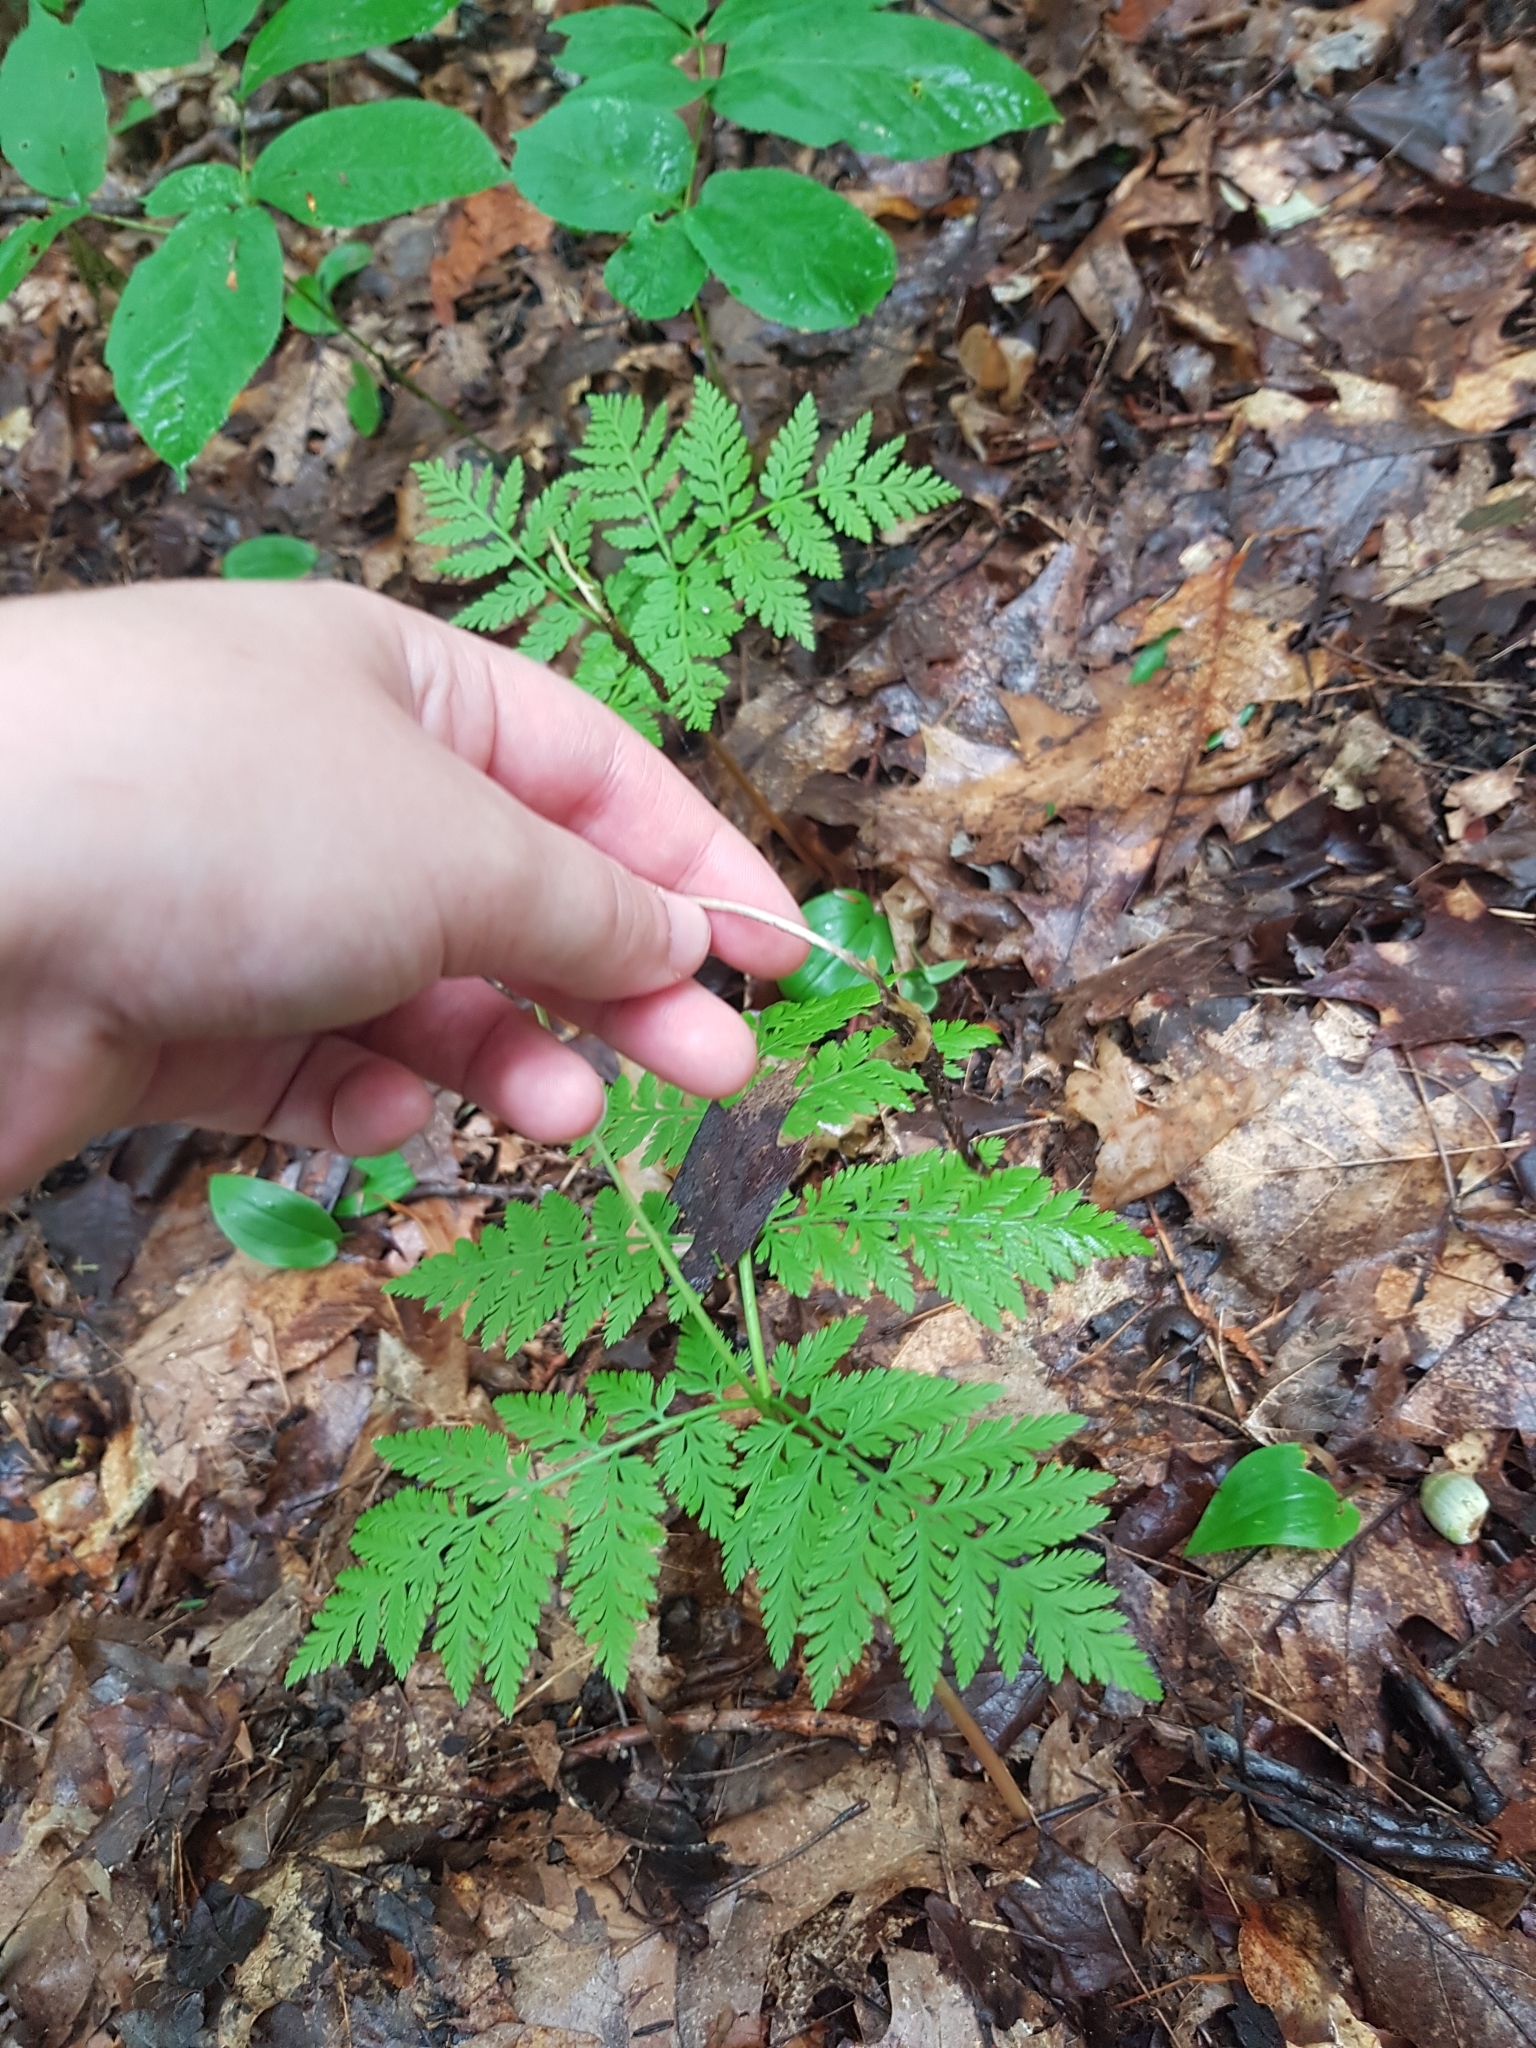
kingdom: Plantae
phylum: Tracheophyta
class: Polypodiopsida
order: Ophioglossales
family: Ophioglossaceae
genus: Botrypus
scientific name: Botrypus virginianus
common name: Common grapefern
